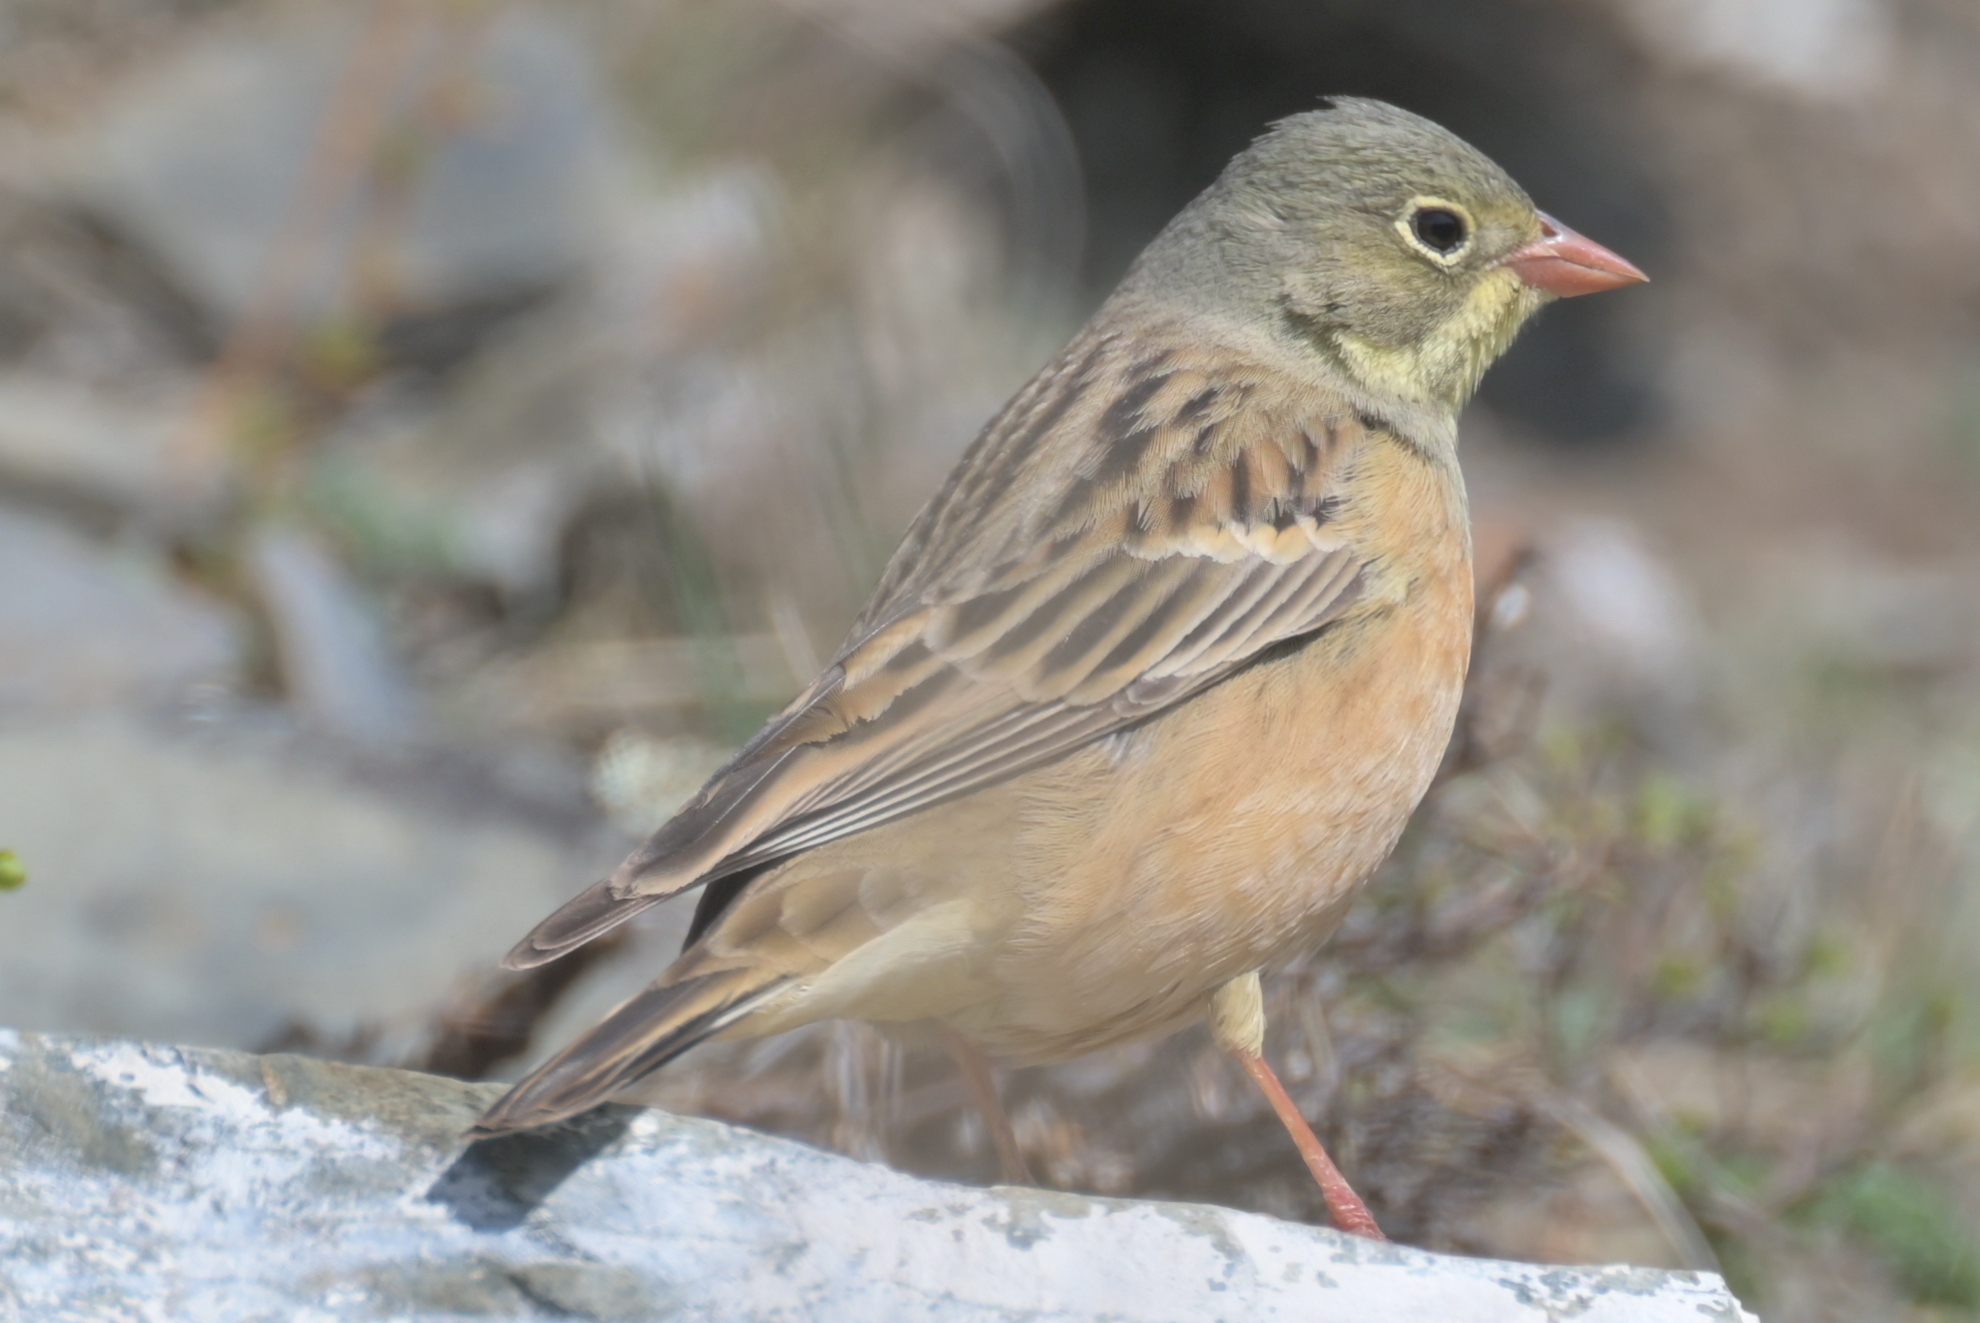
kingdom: Animalia
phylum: Chordata
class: Aves
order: Passeriformes
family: Emberizidae
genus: Emberiza
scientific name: Emberiza hortulana
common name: Ortolan bunting
